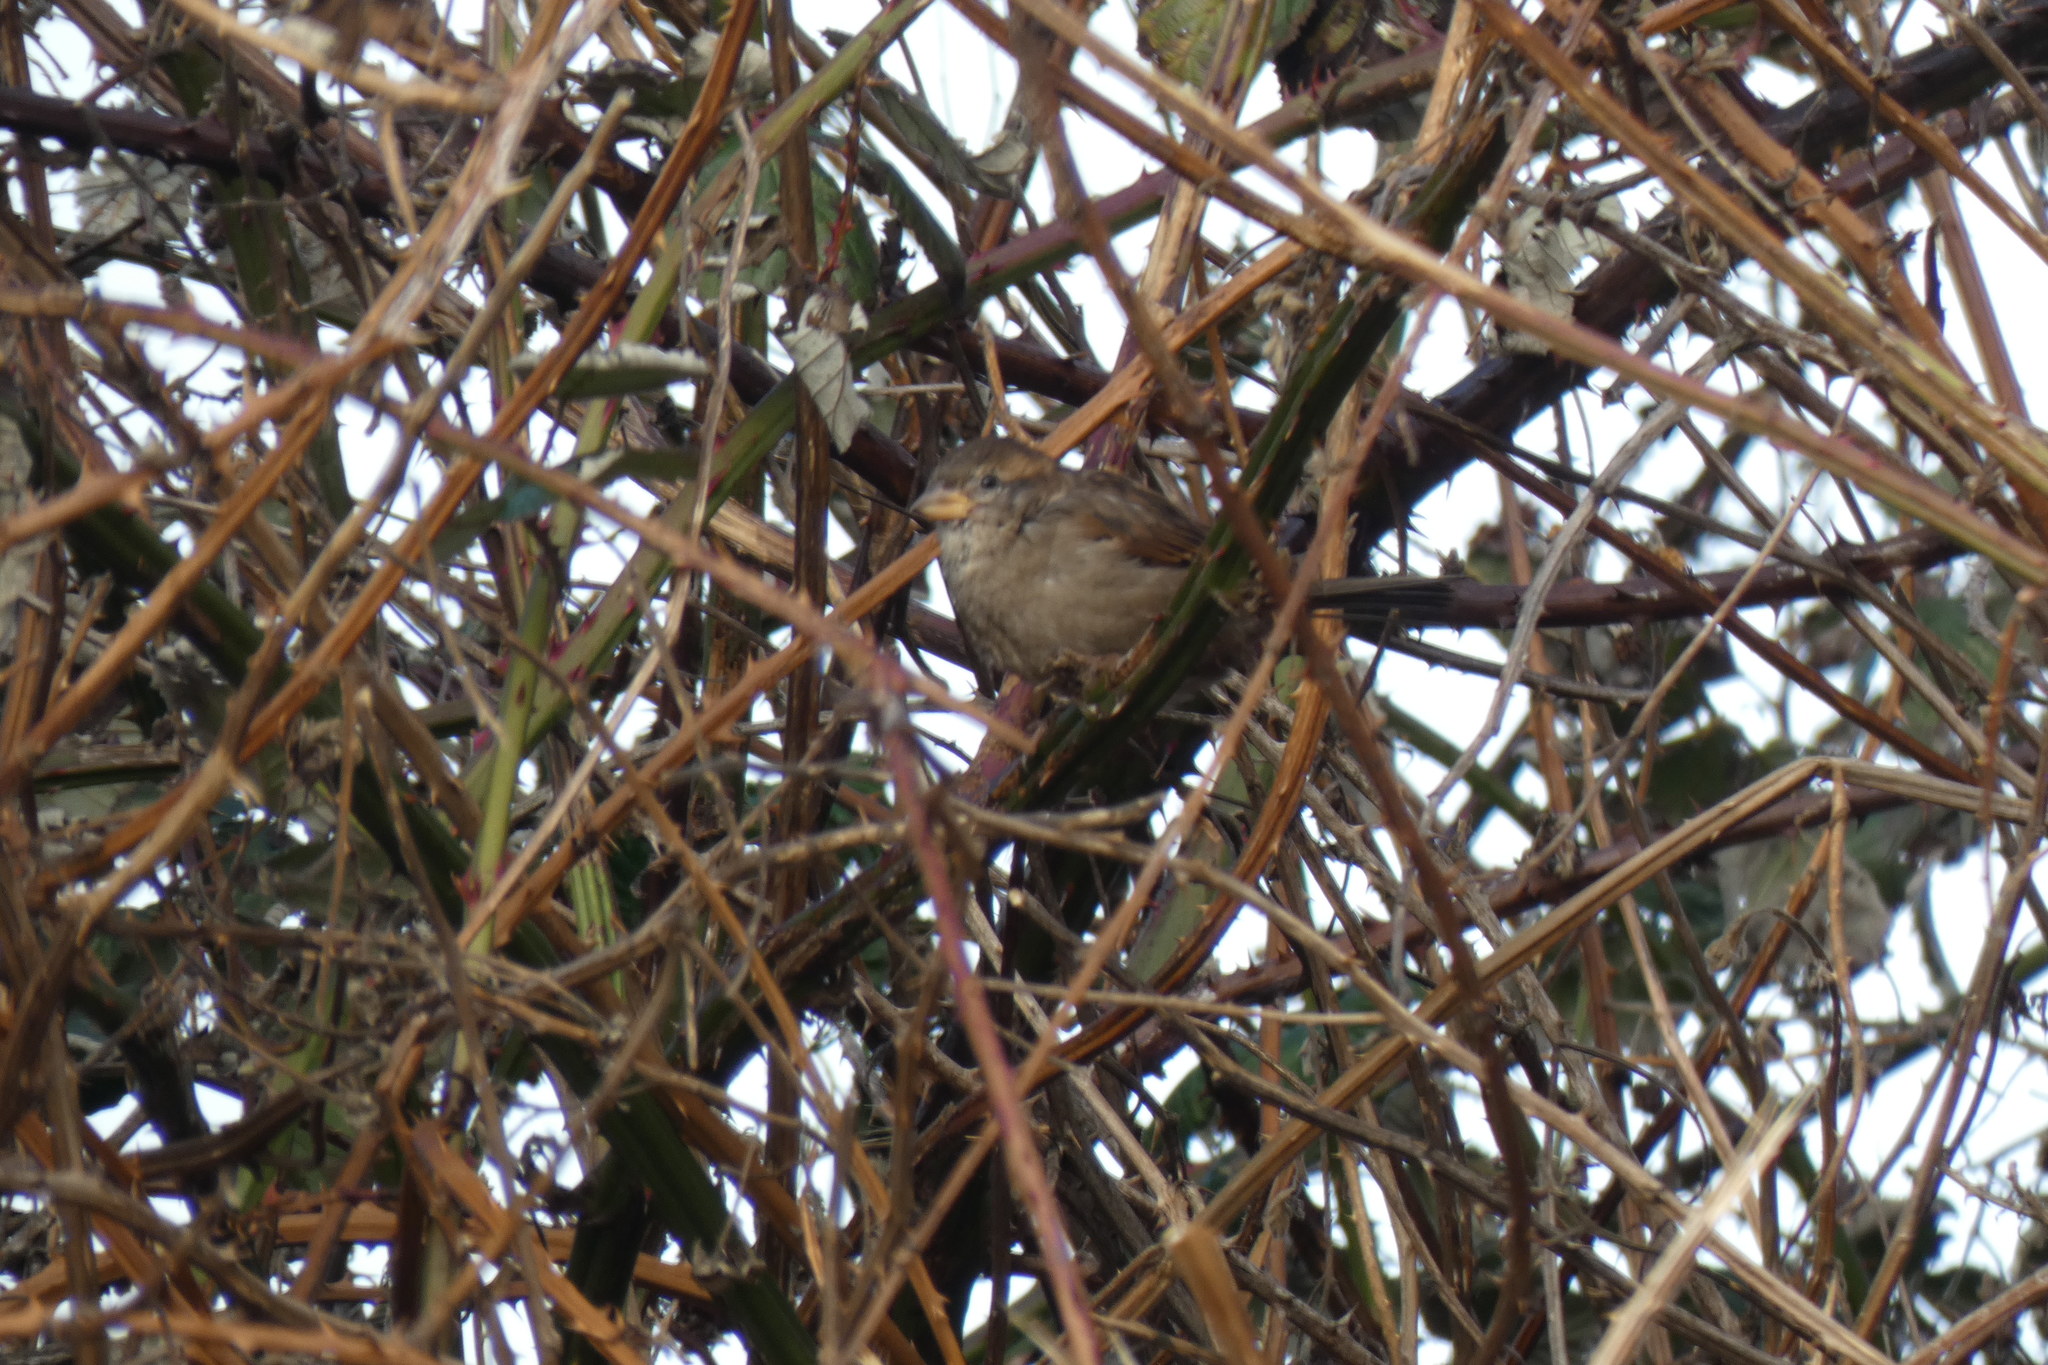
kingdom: Animalia
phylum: Chordata
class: Aves
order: Passeriformes
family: Passeridae
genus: Passer
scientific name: Passer domesticus
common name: House sparrow
